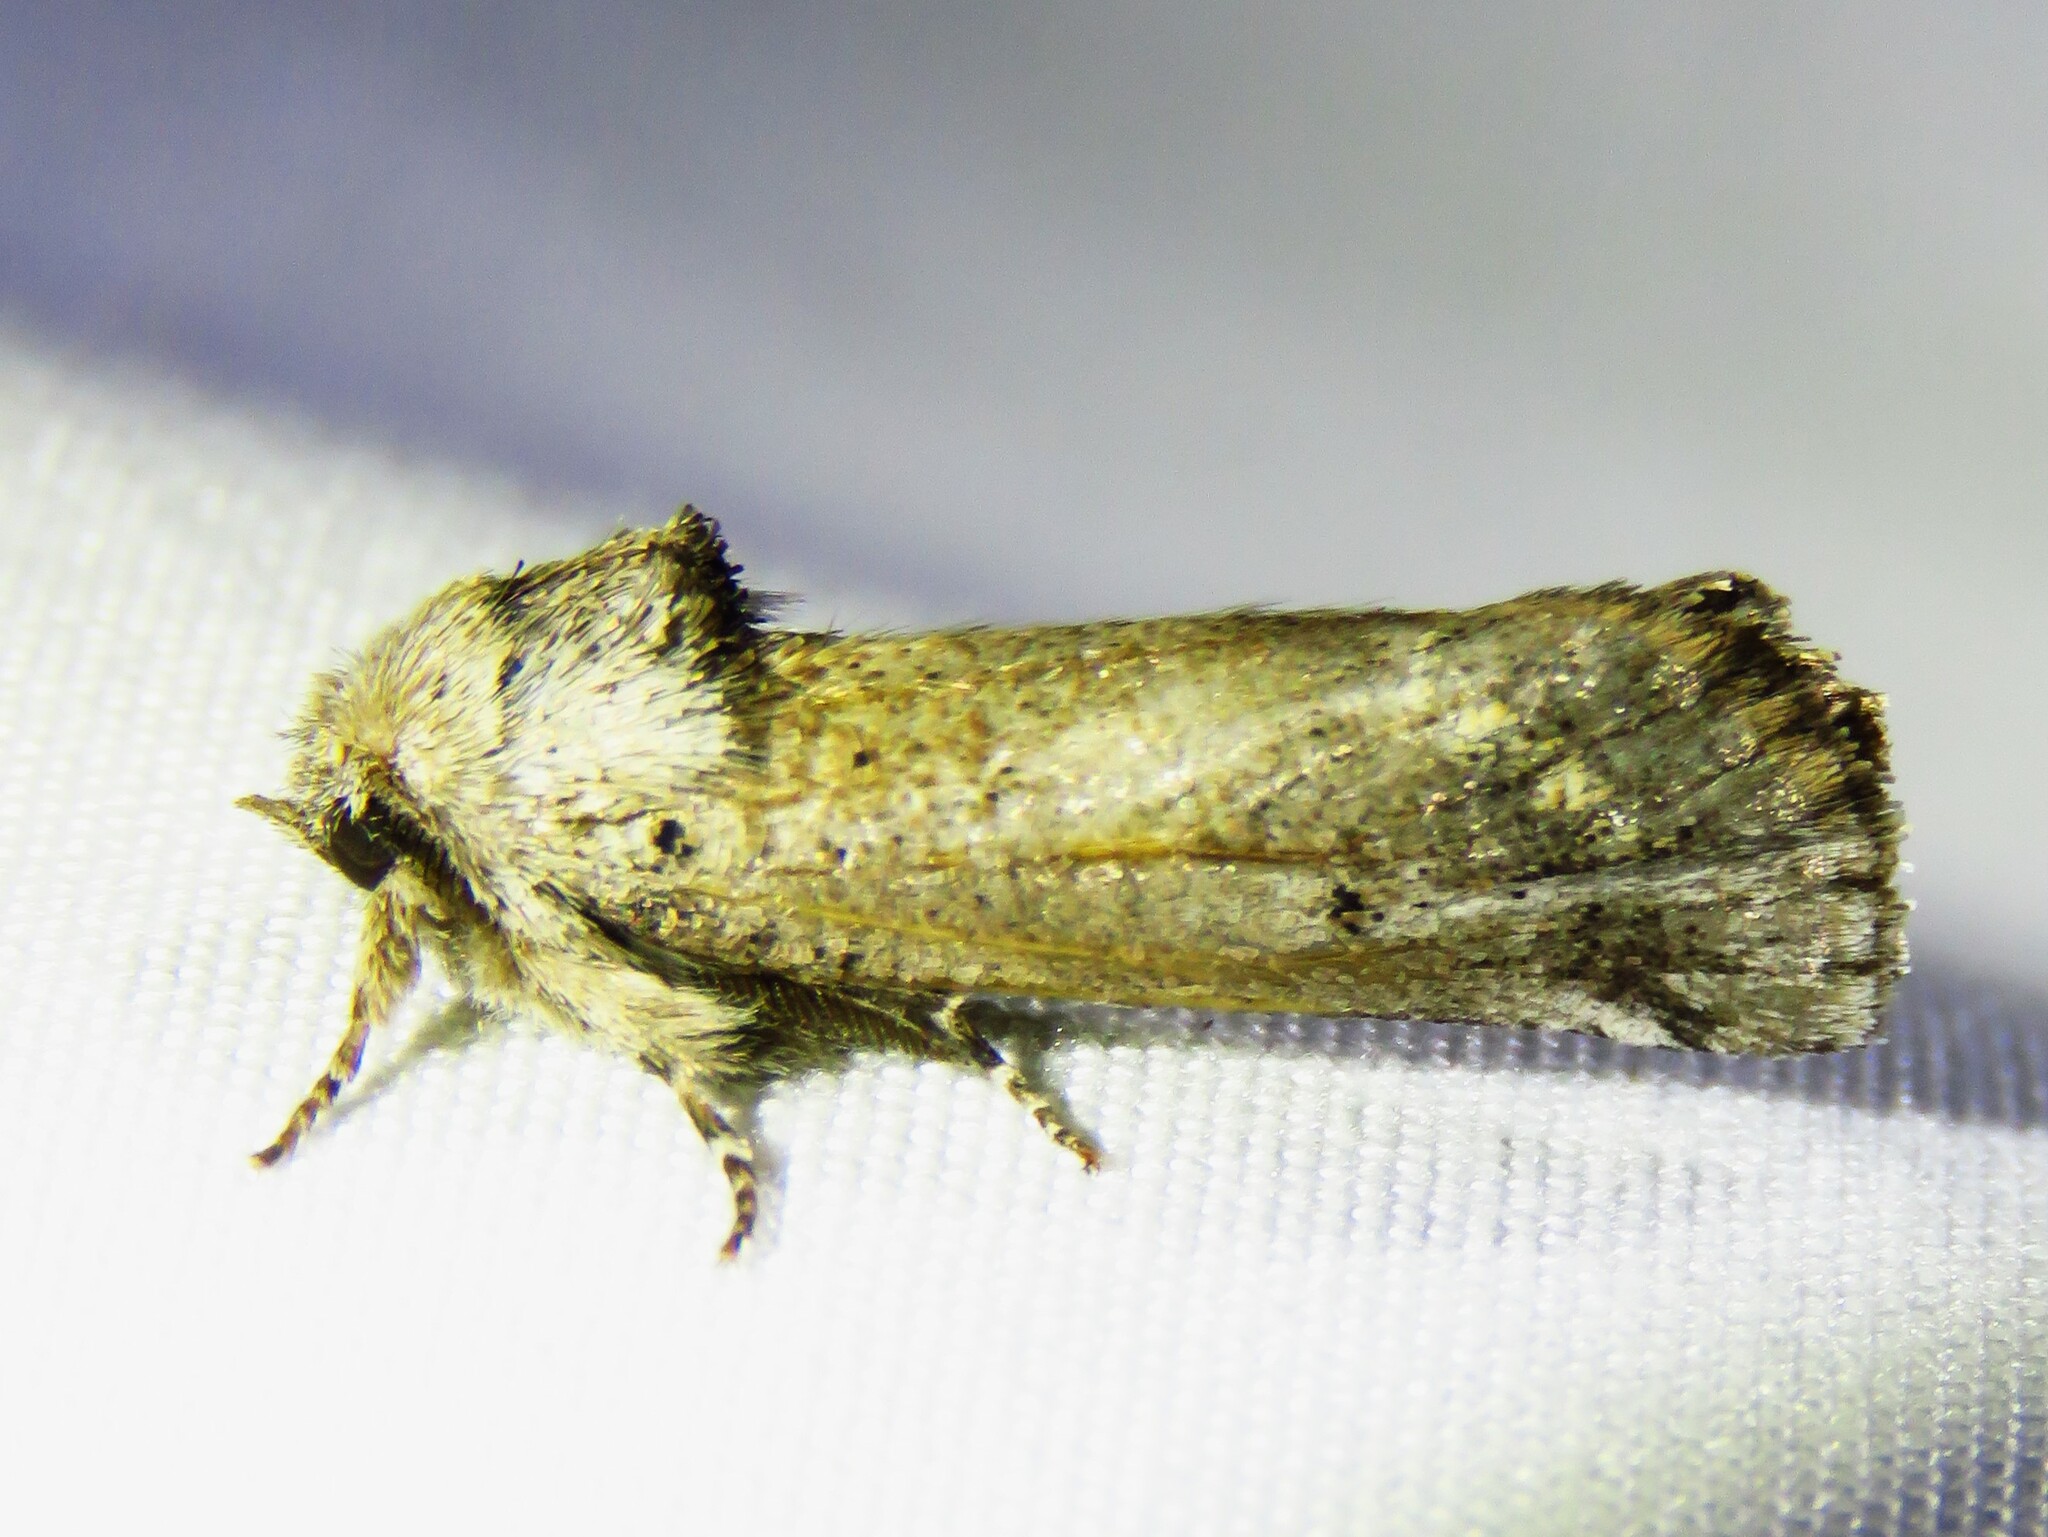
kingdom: Animalia
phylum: Arthropoda
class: Insecta
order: Lepidoptera
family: Erebidae
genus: Aon
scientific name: Aon noctuiformis
